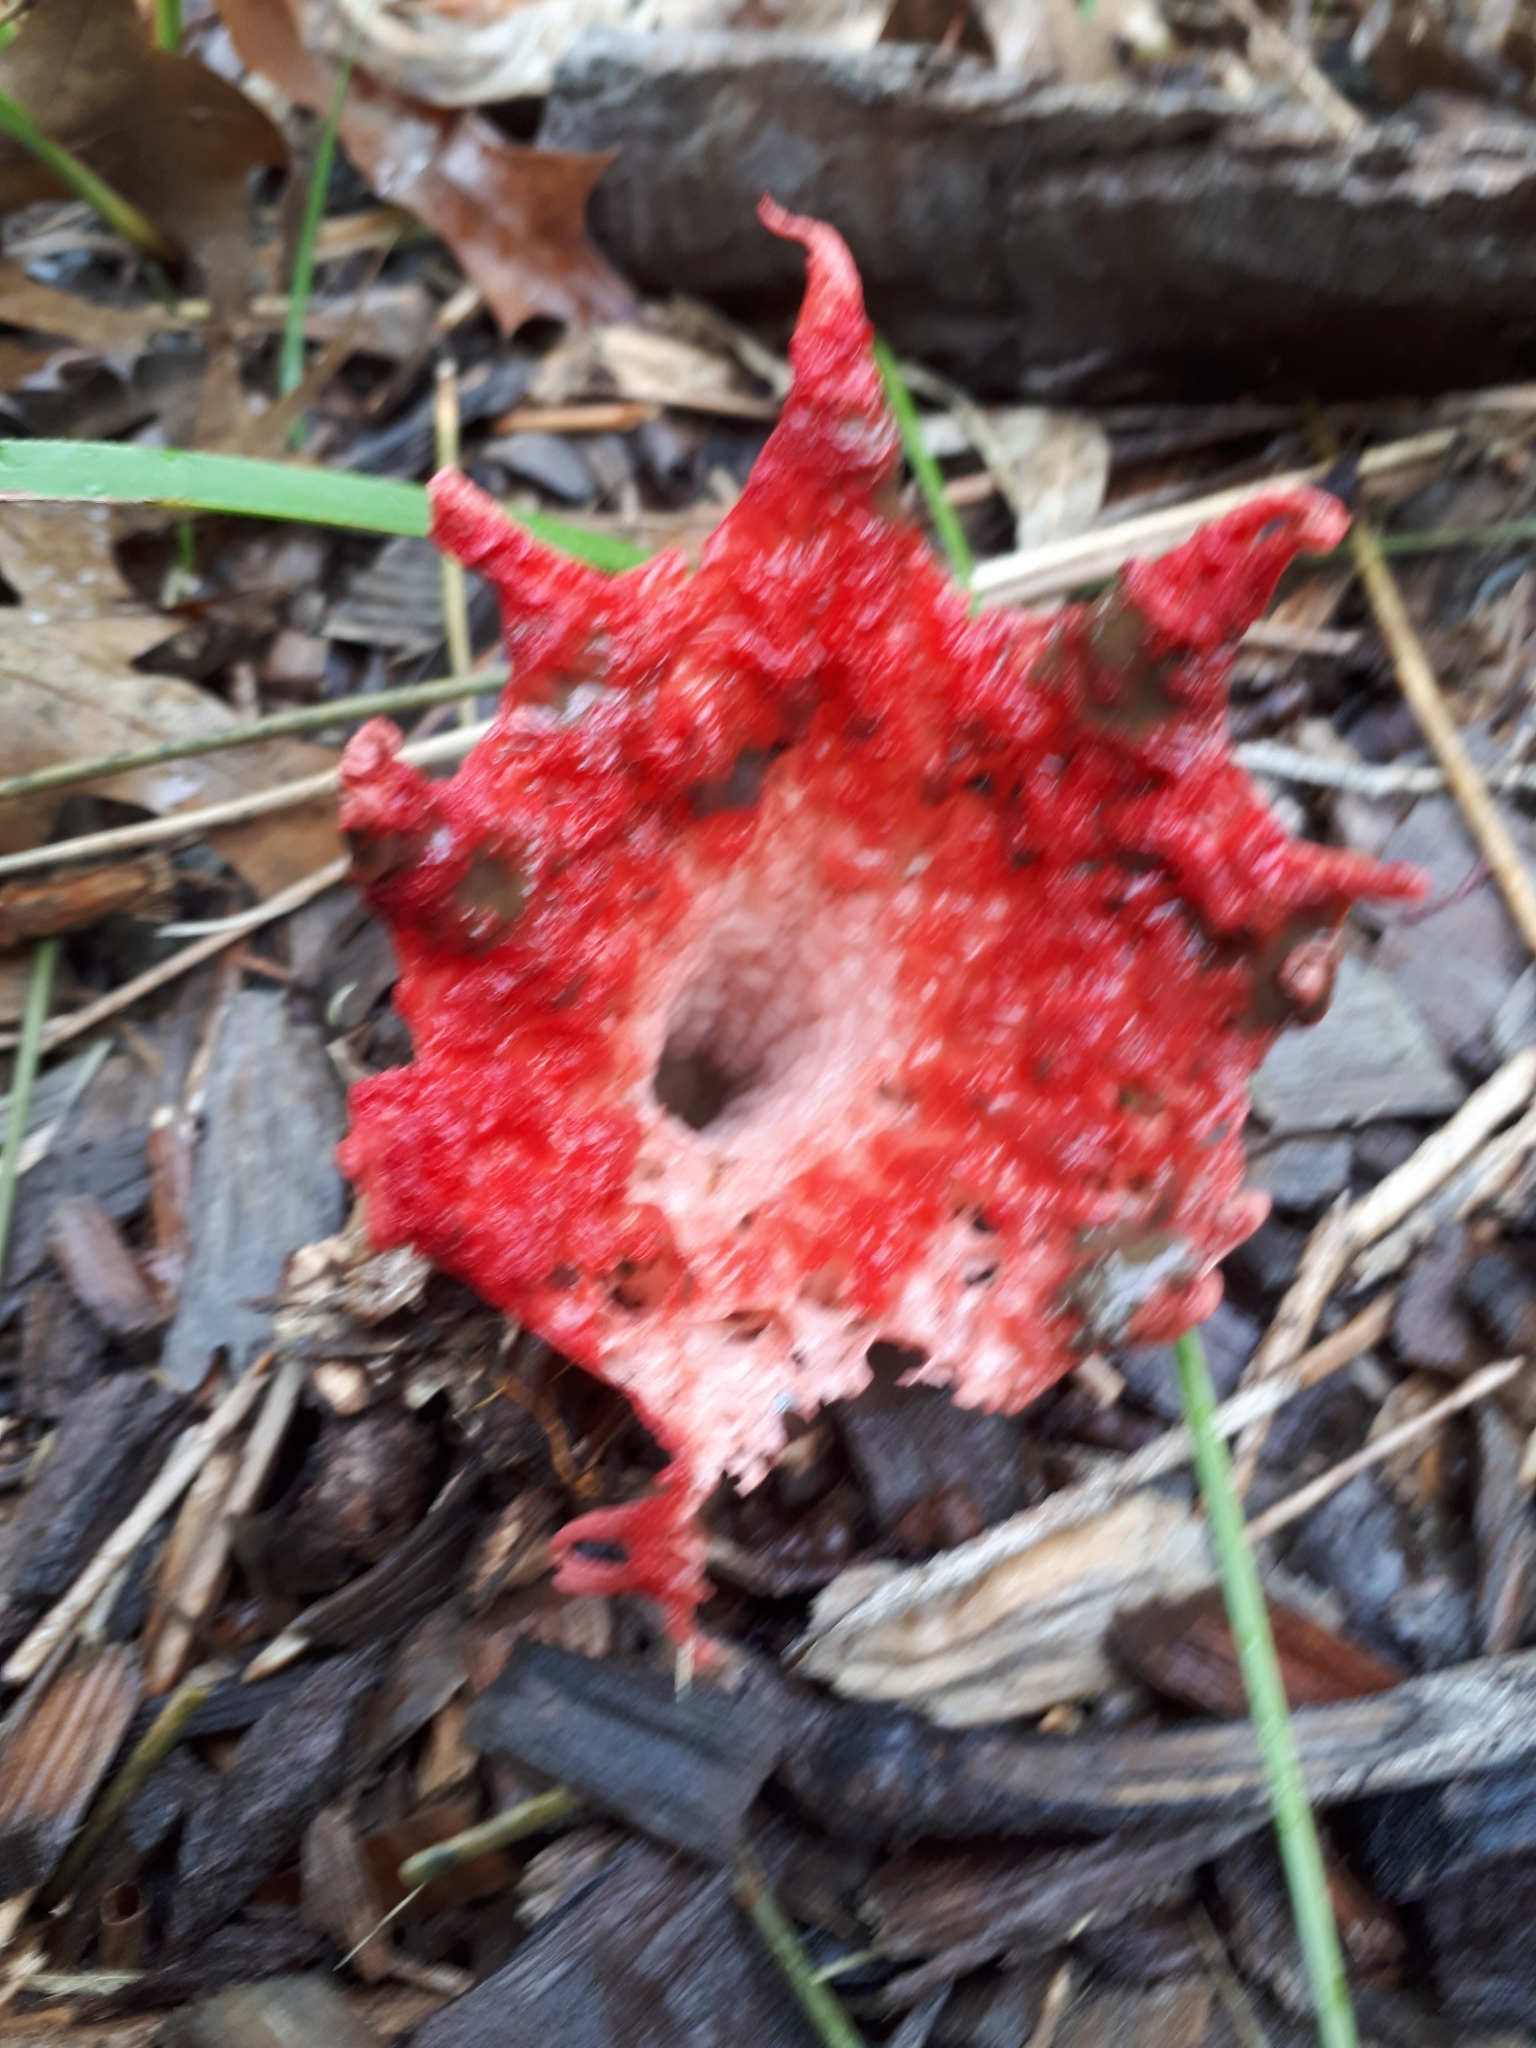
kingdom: Fungi
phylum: Basidiomycota
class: Agaricomycetes
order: Phallales
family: Phallaceae
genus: Aseroe
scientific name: Aseroe rubra
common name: Starfish fungus
